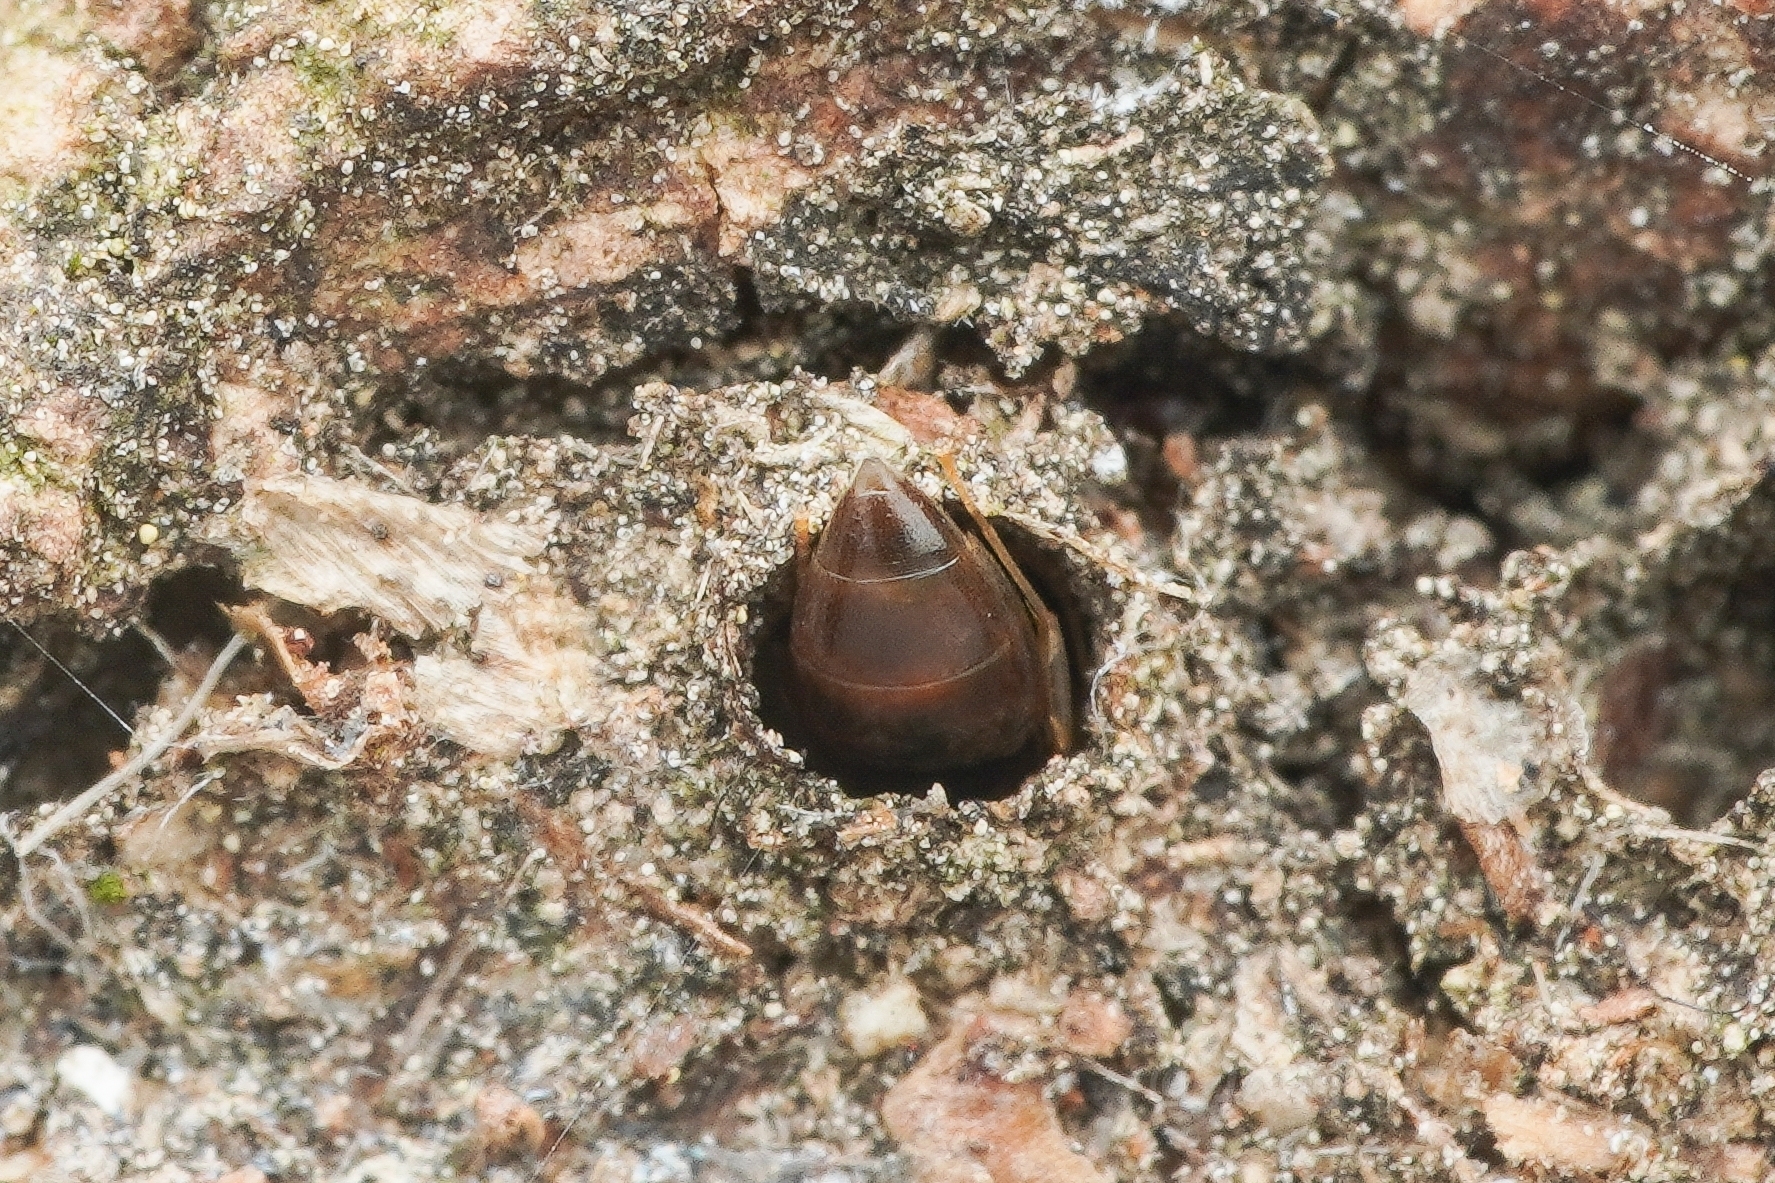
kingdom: Animalia
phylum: Arthropoda
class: Insecta
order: Hymenoptera
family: Formicidae
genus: Technomyrmex
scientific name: Technomyrmex gibbosus
